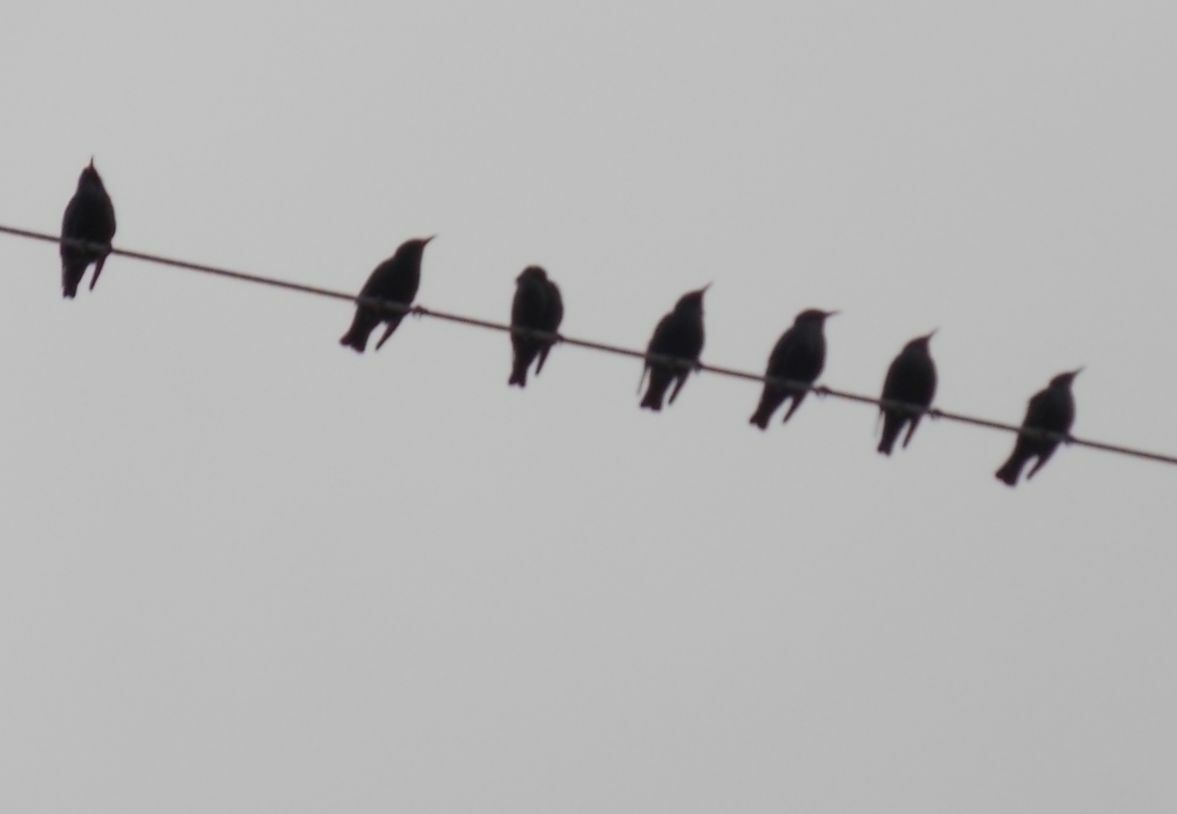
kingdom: Animalia
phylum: Chordata
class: Aves
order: Passeriformes
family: Sturnidae
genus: Sturnus
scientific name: Sturnus unicolor
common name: Spotless starling
